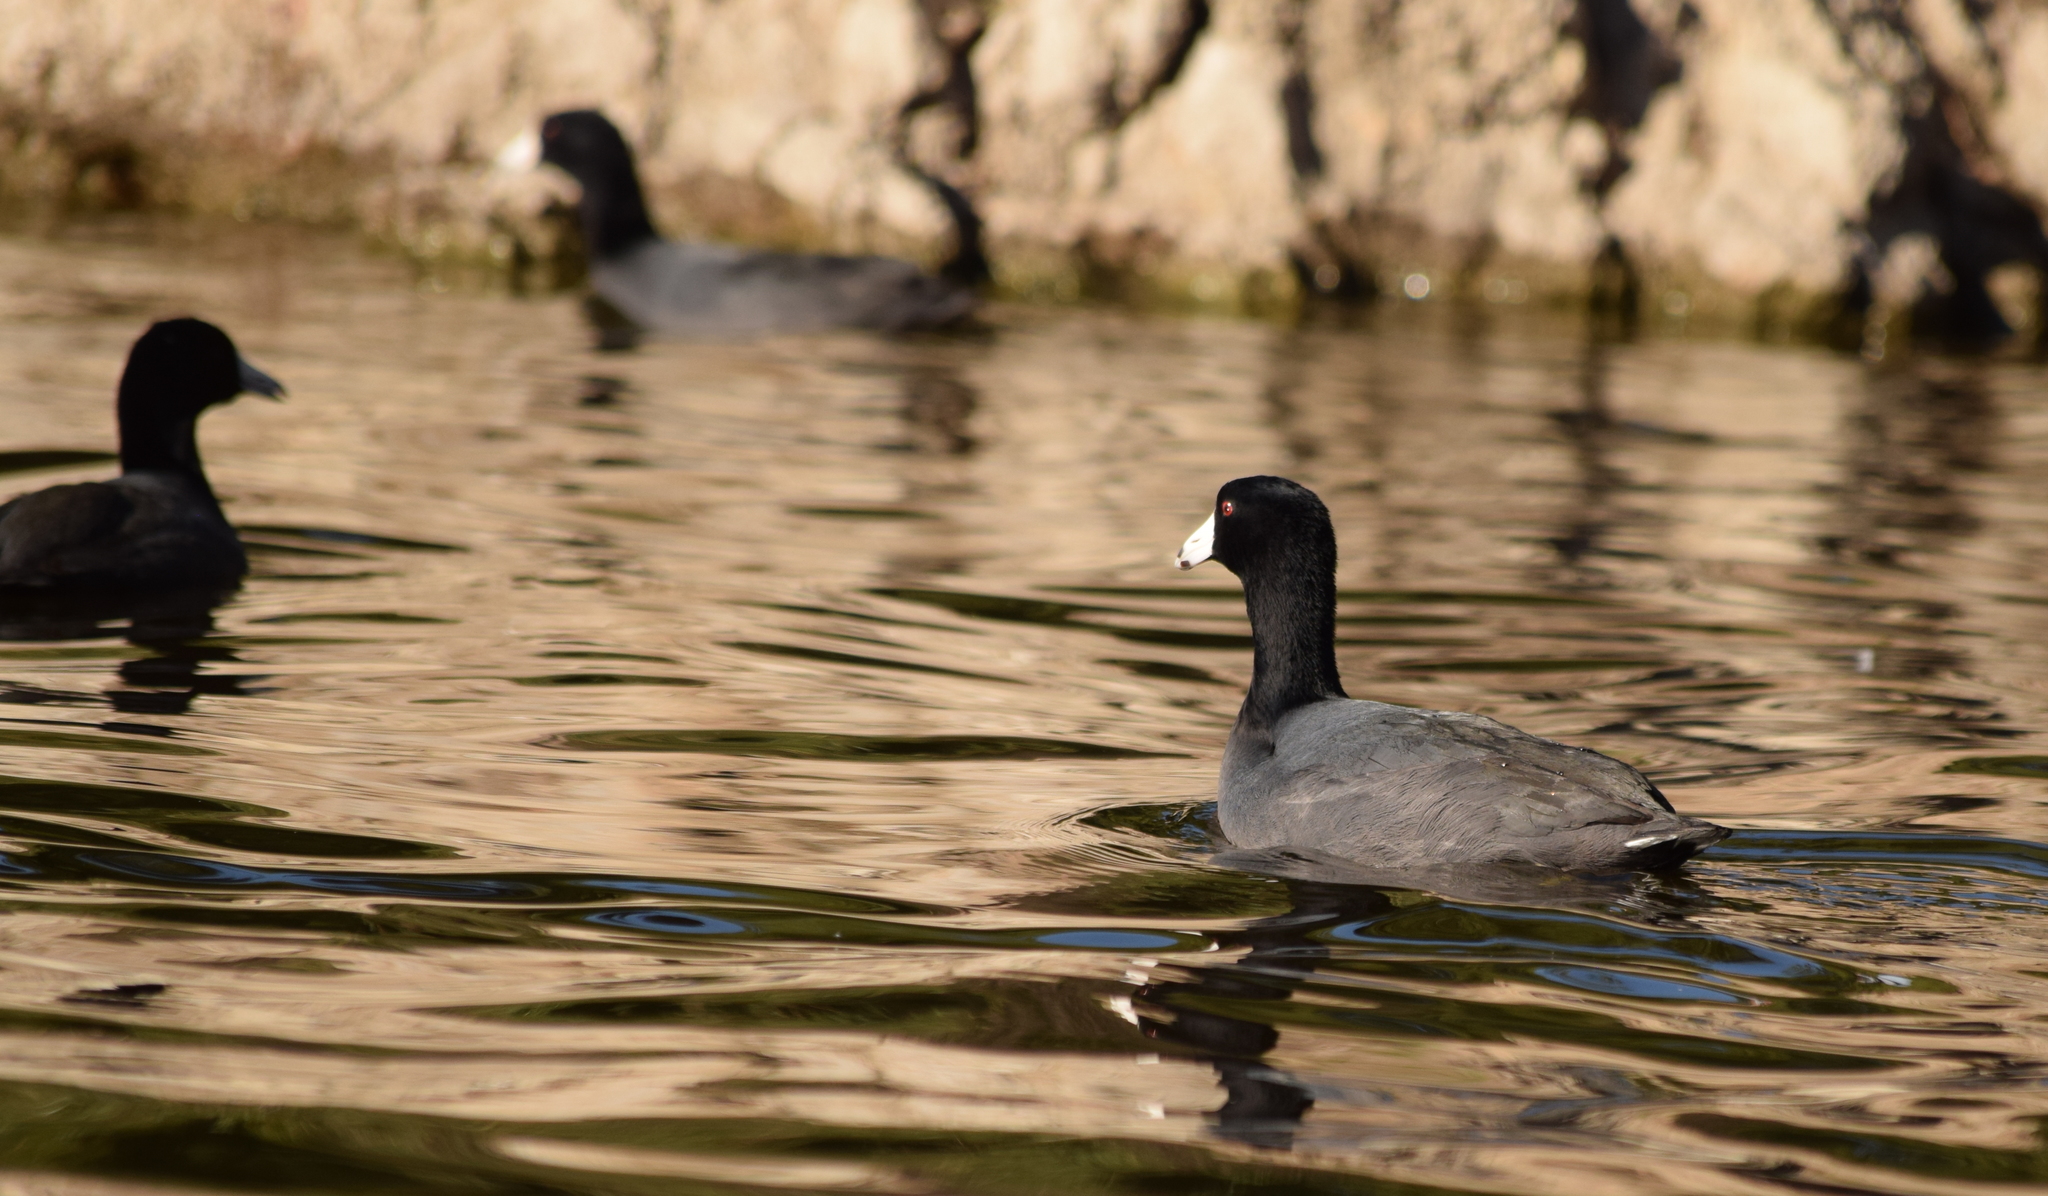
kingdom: Animalia
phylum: Chordata
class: Aves
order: Gruiformes
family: Rallidae
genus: Fulica
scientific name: Fulica americana
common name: American coot
